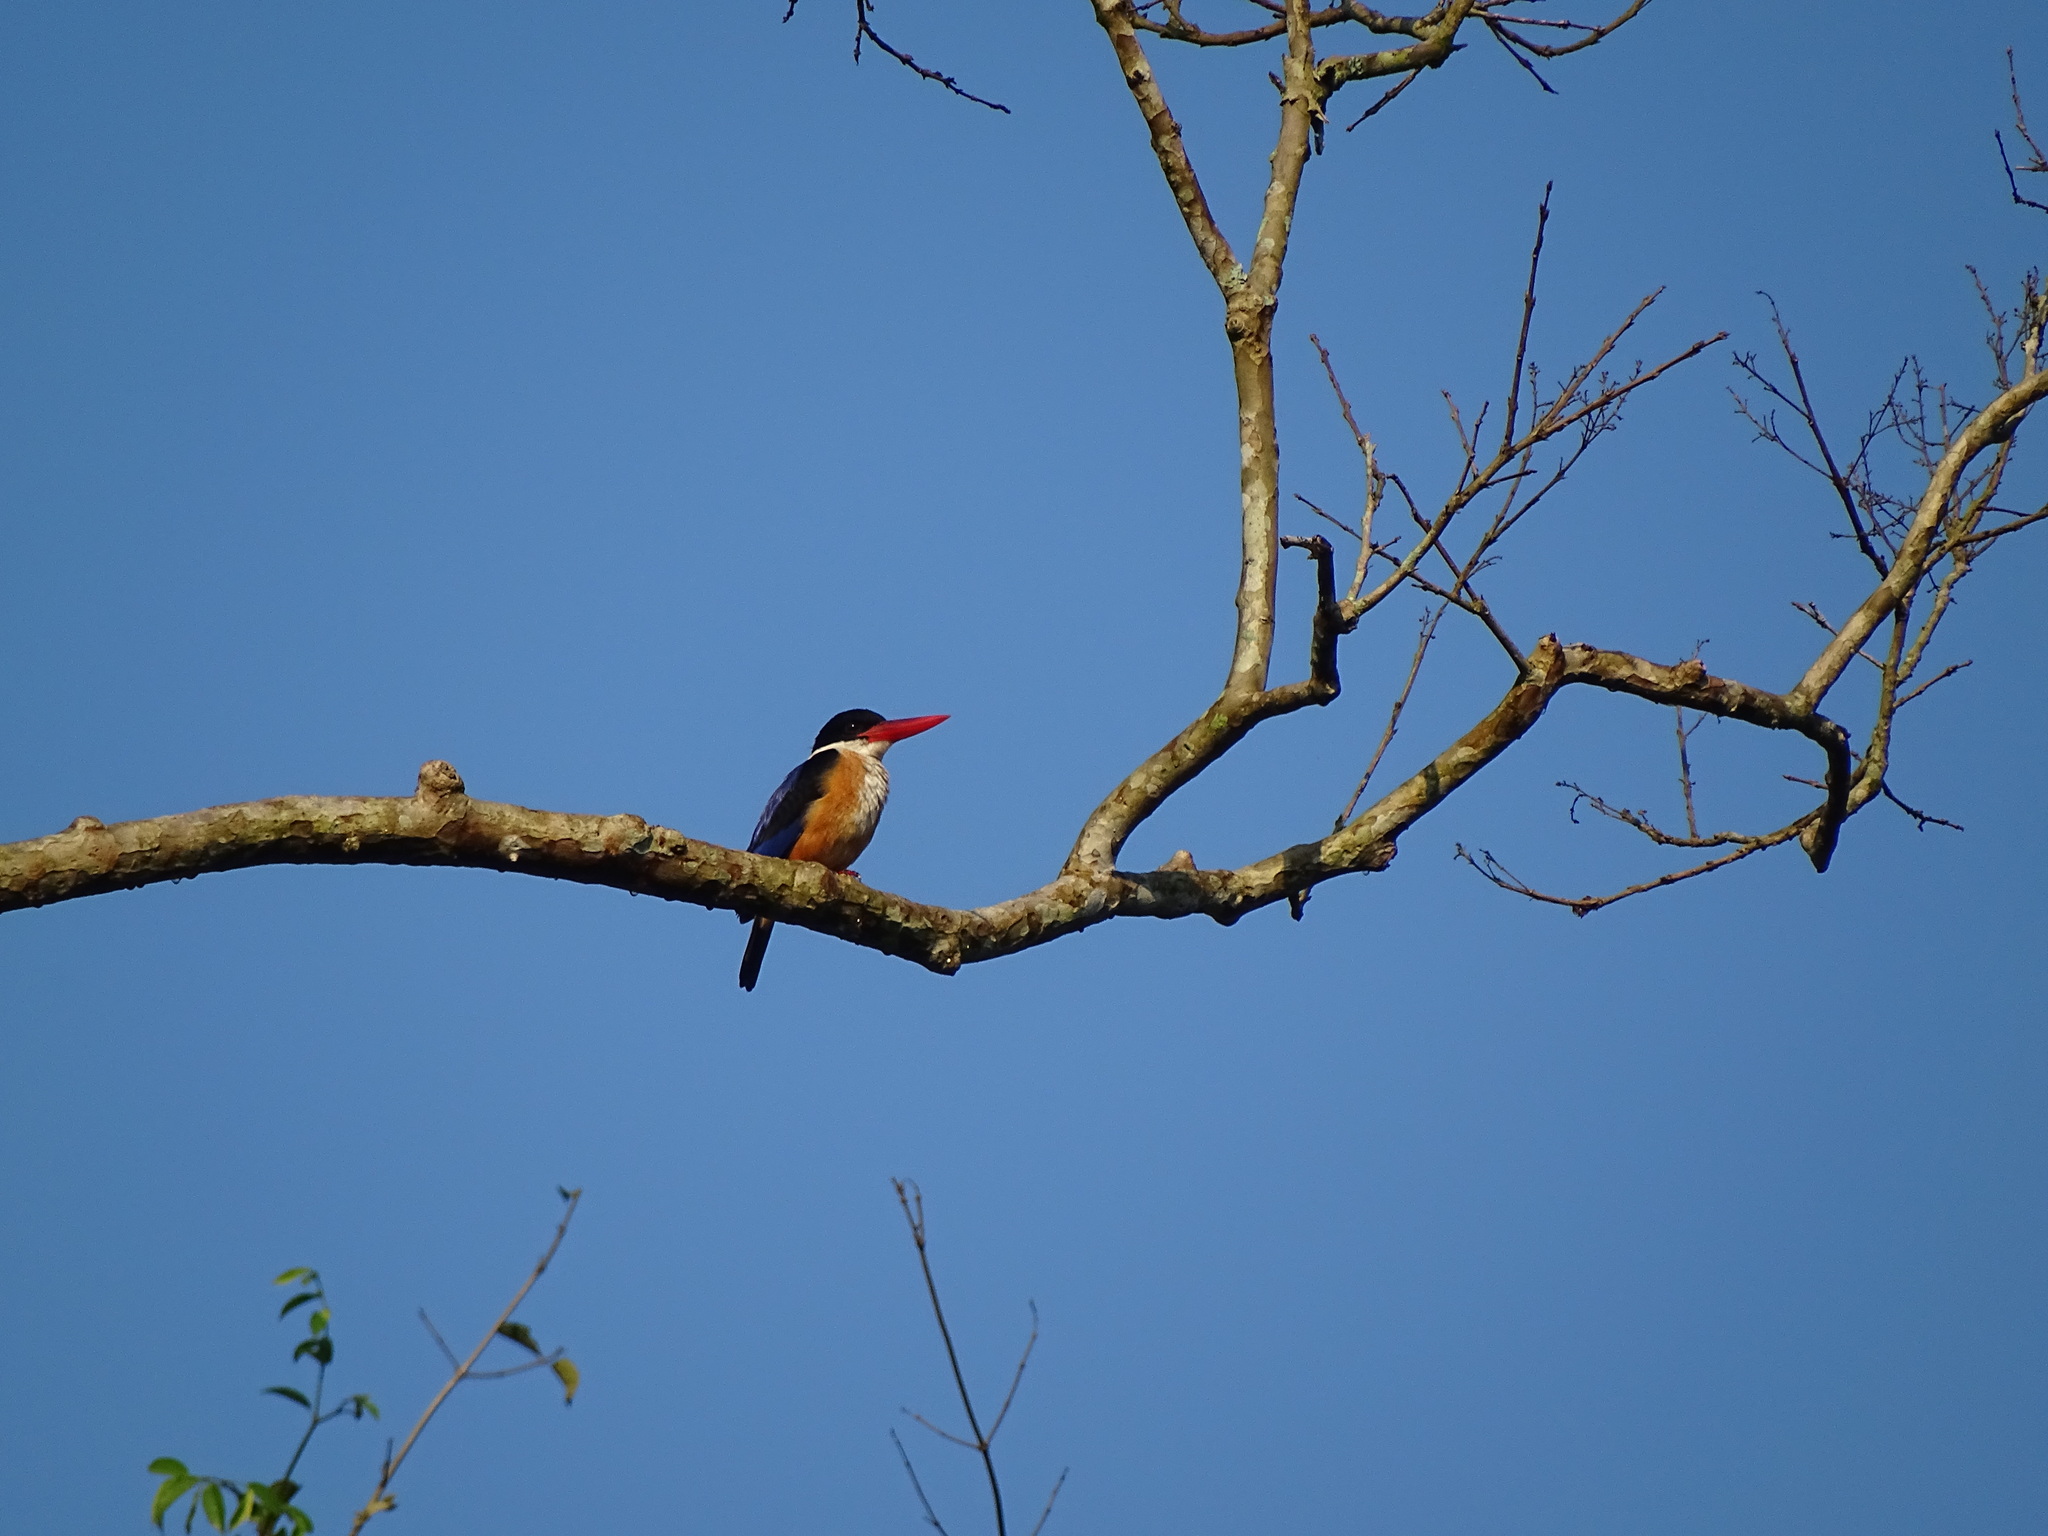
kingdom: Animalia
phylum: Chordata
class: Aves
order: Coraciiformes
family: Alcedinidae
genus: Halcyon
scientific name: Halcyon pileata
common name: Black-capped kingfisher
